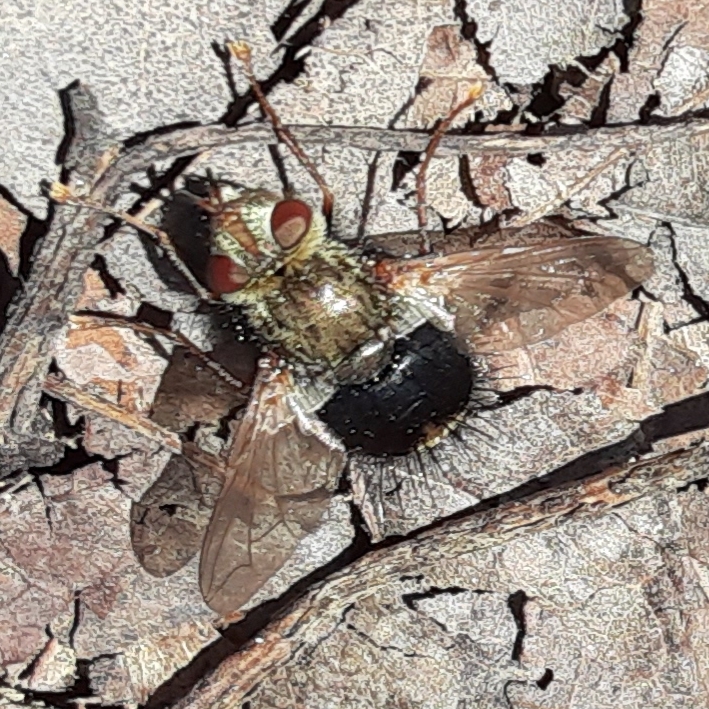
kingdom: Animalia
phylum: Arthropoda
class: Insecta
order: Diptera
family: Tachinidae
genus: Epalpus
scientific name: Epalpus signifer
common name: Early tachinid fly
